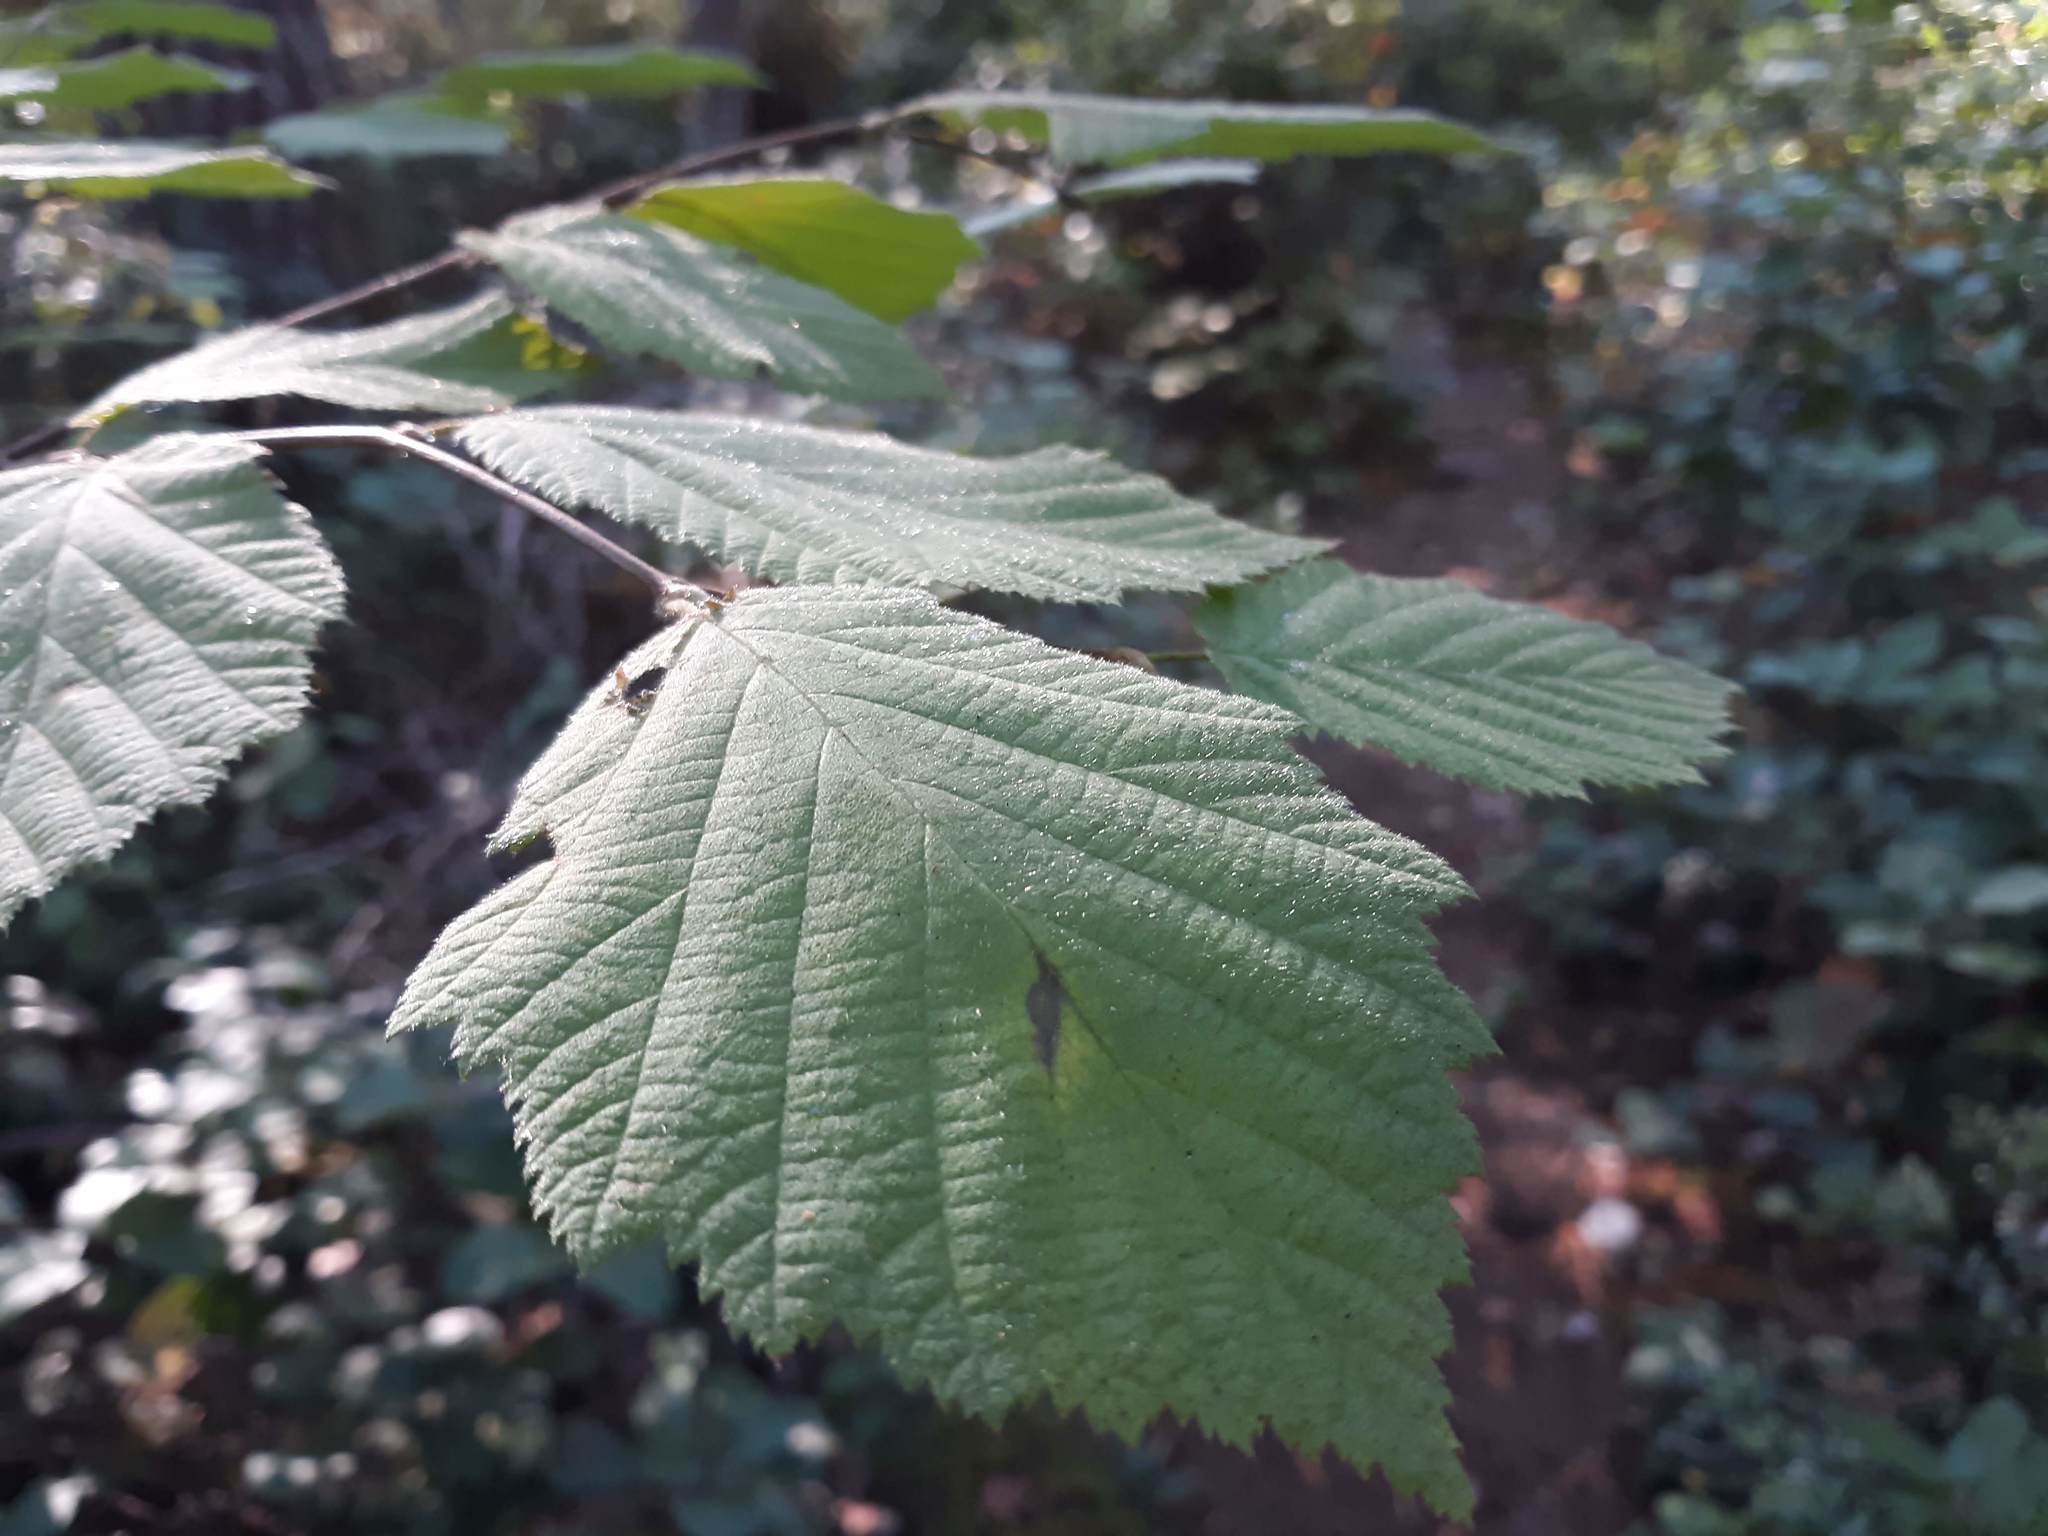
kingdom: Plantae
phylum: Tracheophyta
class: Magnoliopsida
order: Fagales
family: Betulaceae
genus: Corylus
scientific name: Corylus cornuta
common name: Beaked hazel
